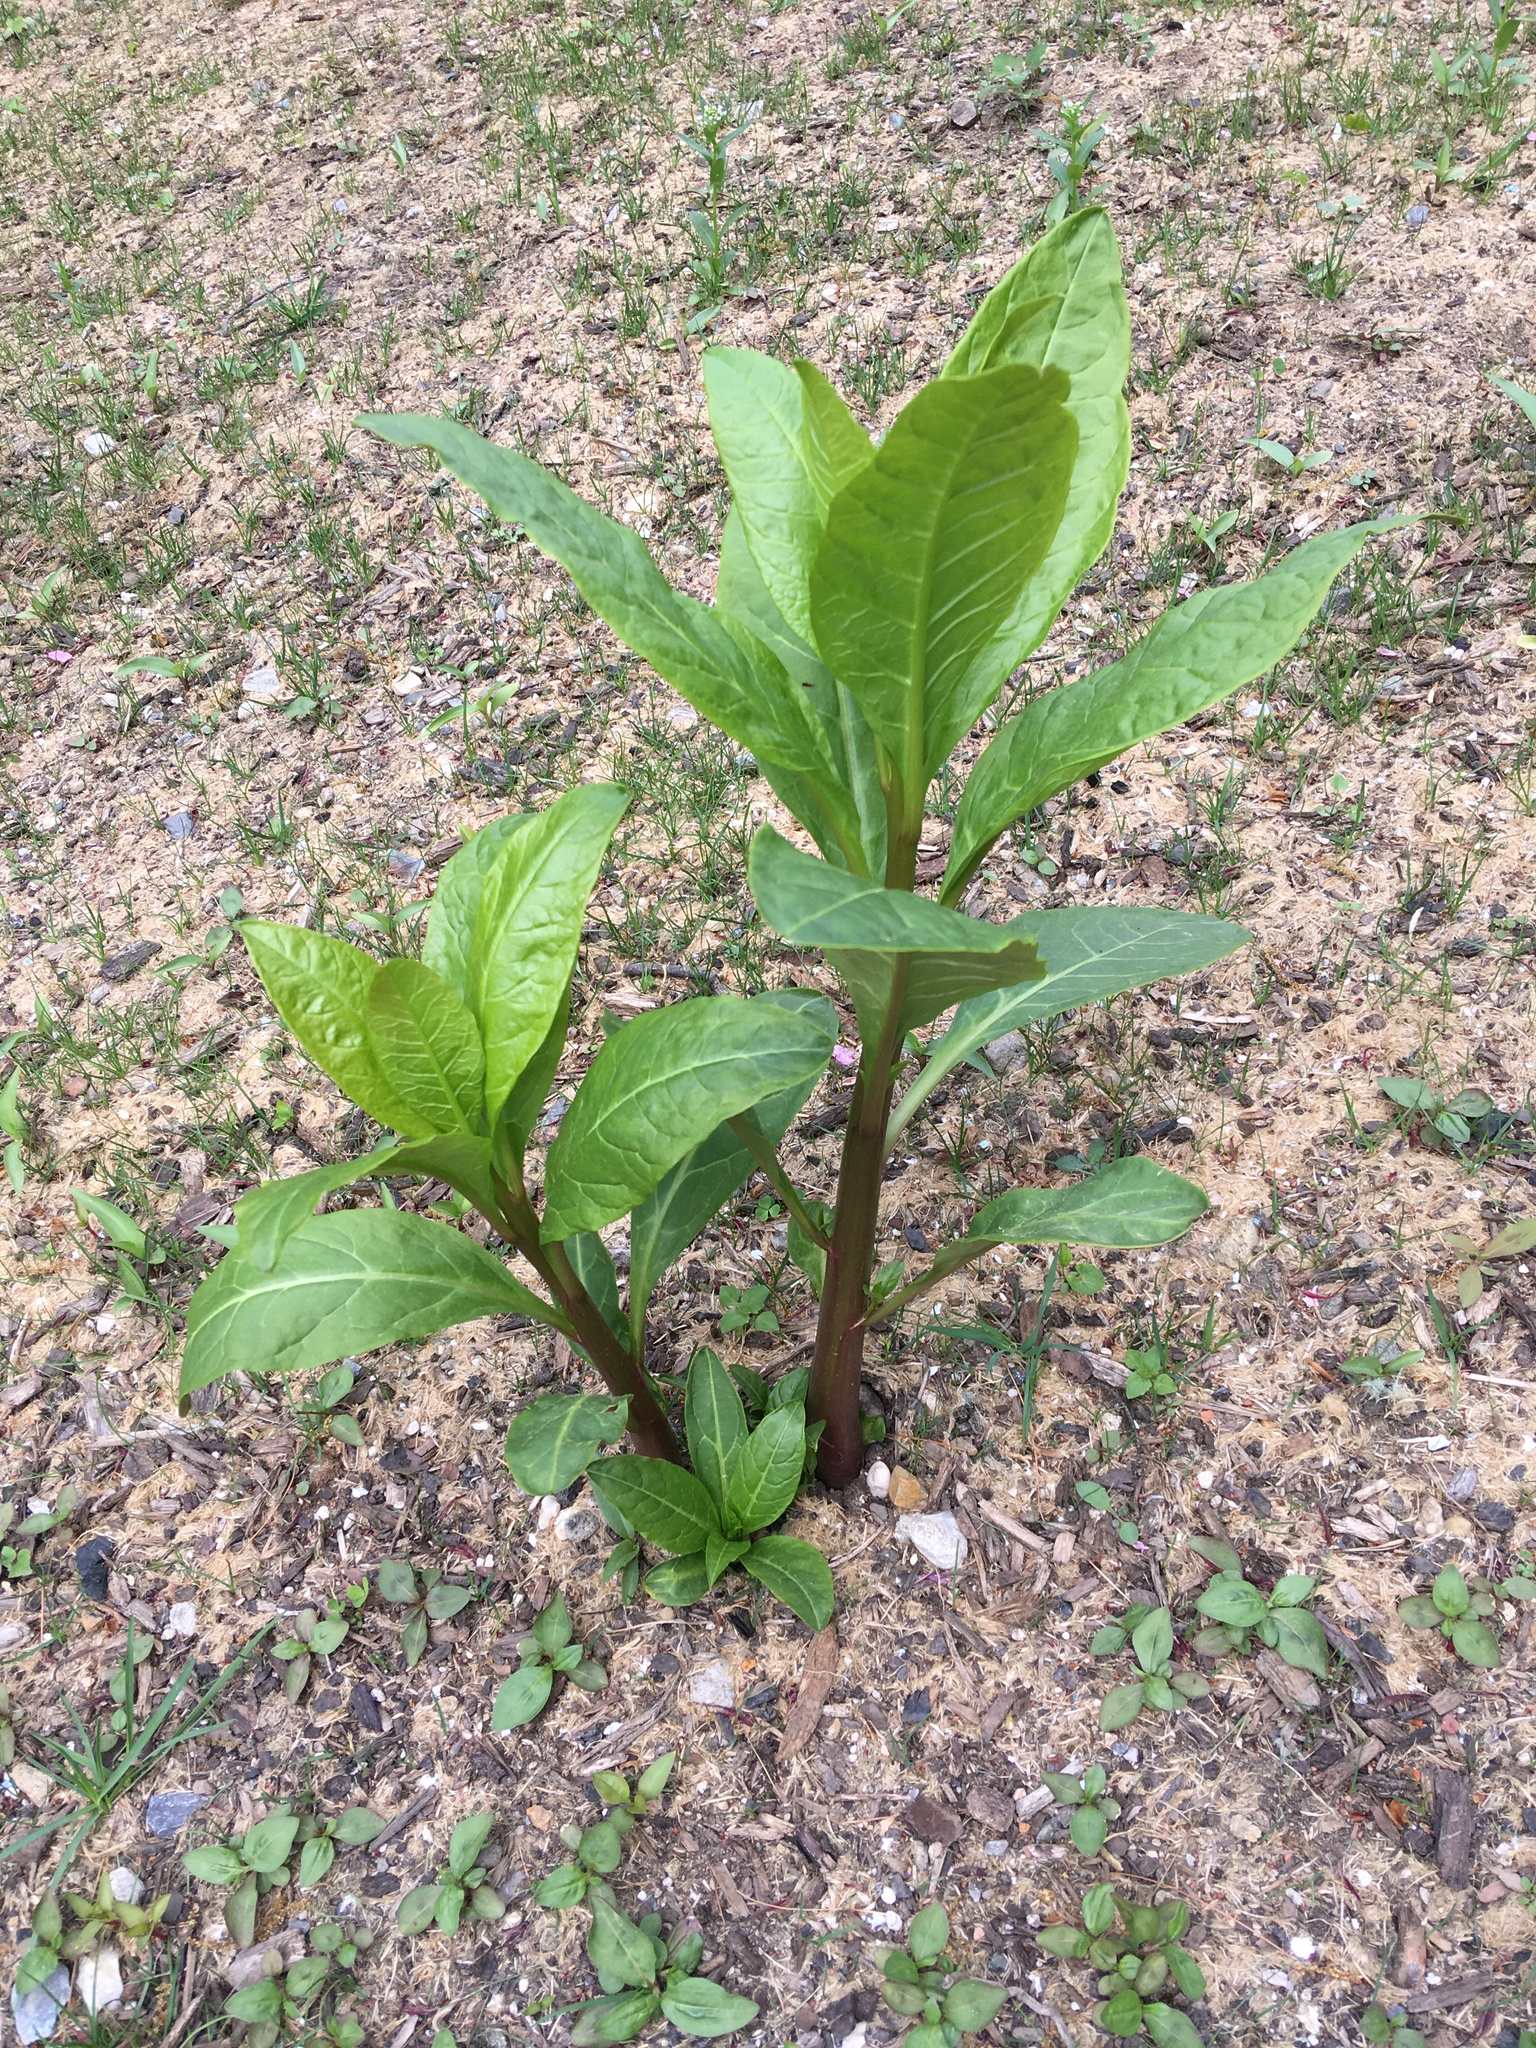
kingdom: Plantae
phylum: Tracheophyta
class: Magnoliopsida
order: Caryophyllales
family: Phytolaccaceae
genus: Phytolacca
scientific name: Phytolacca americana
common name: American pokeweed
